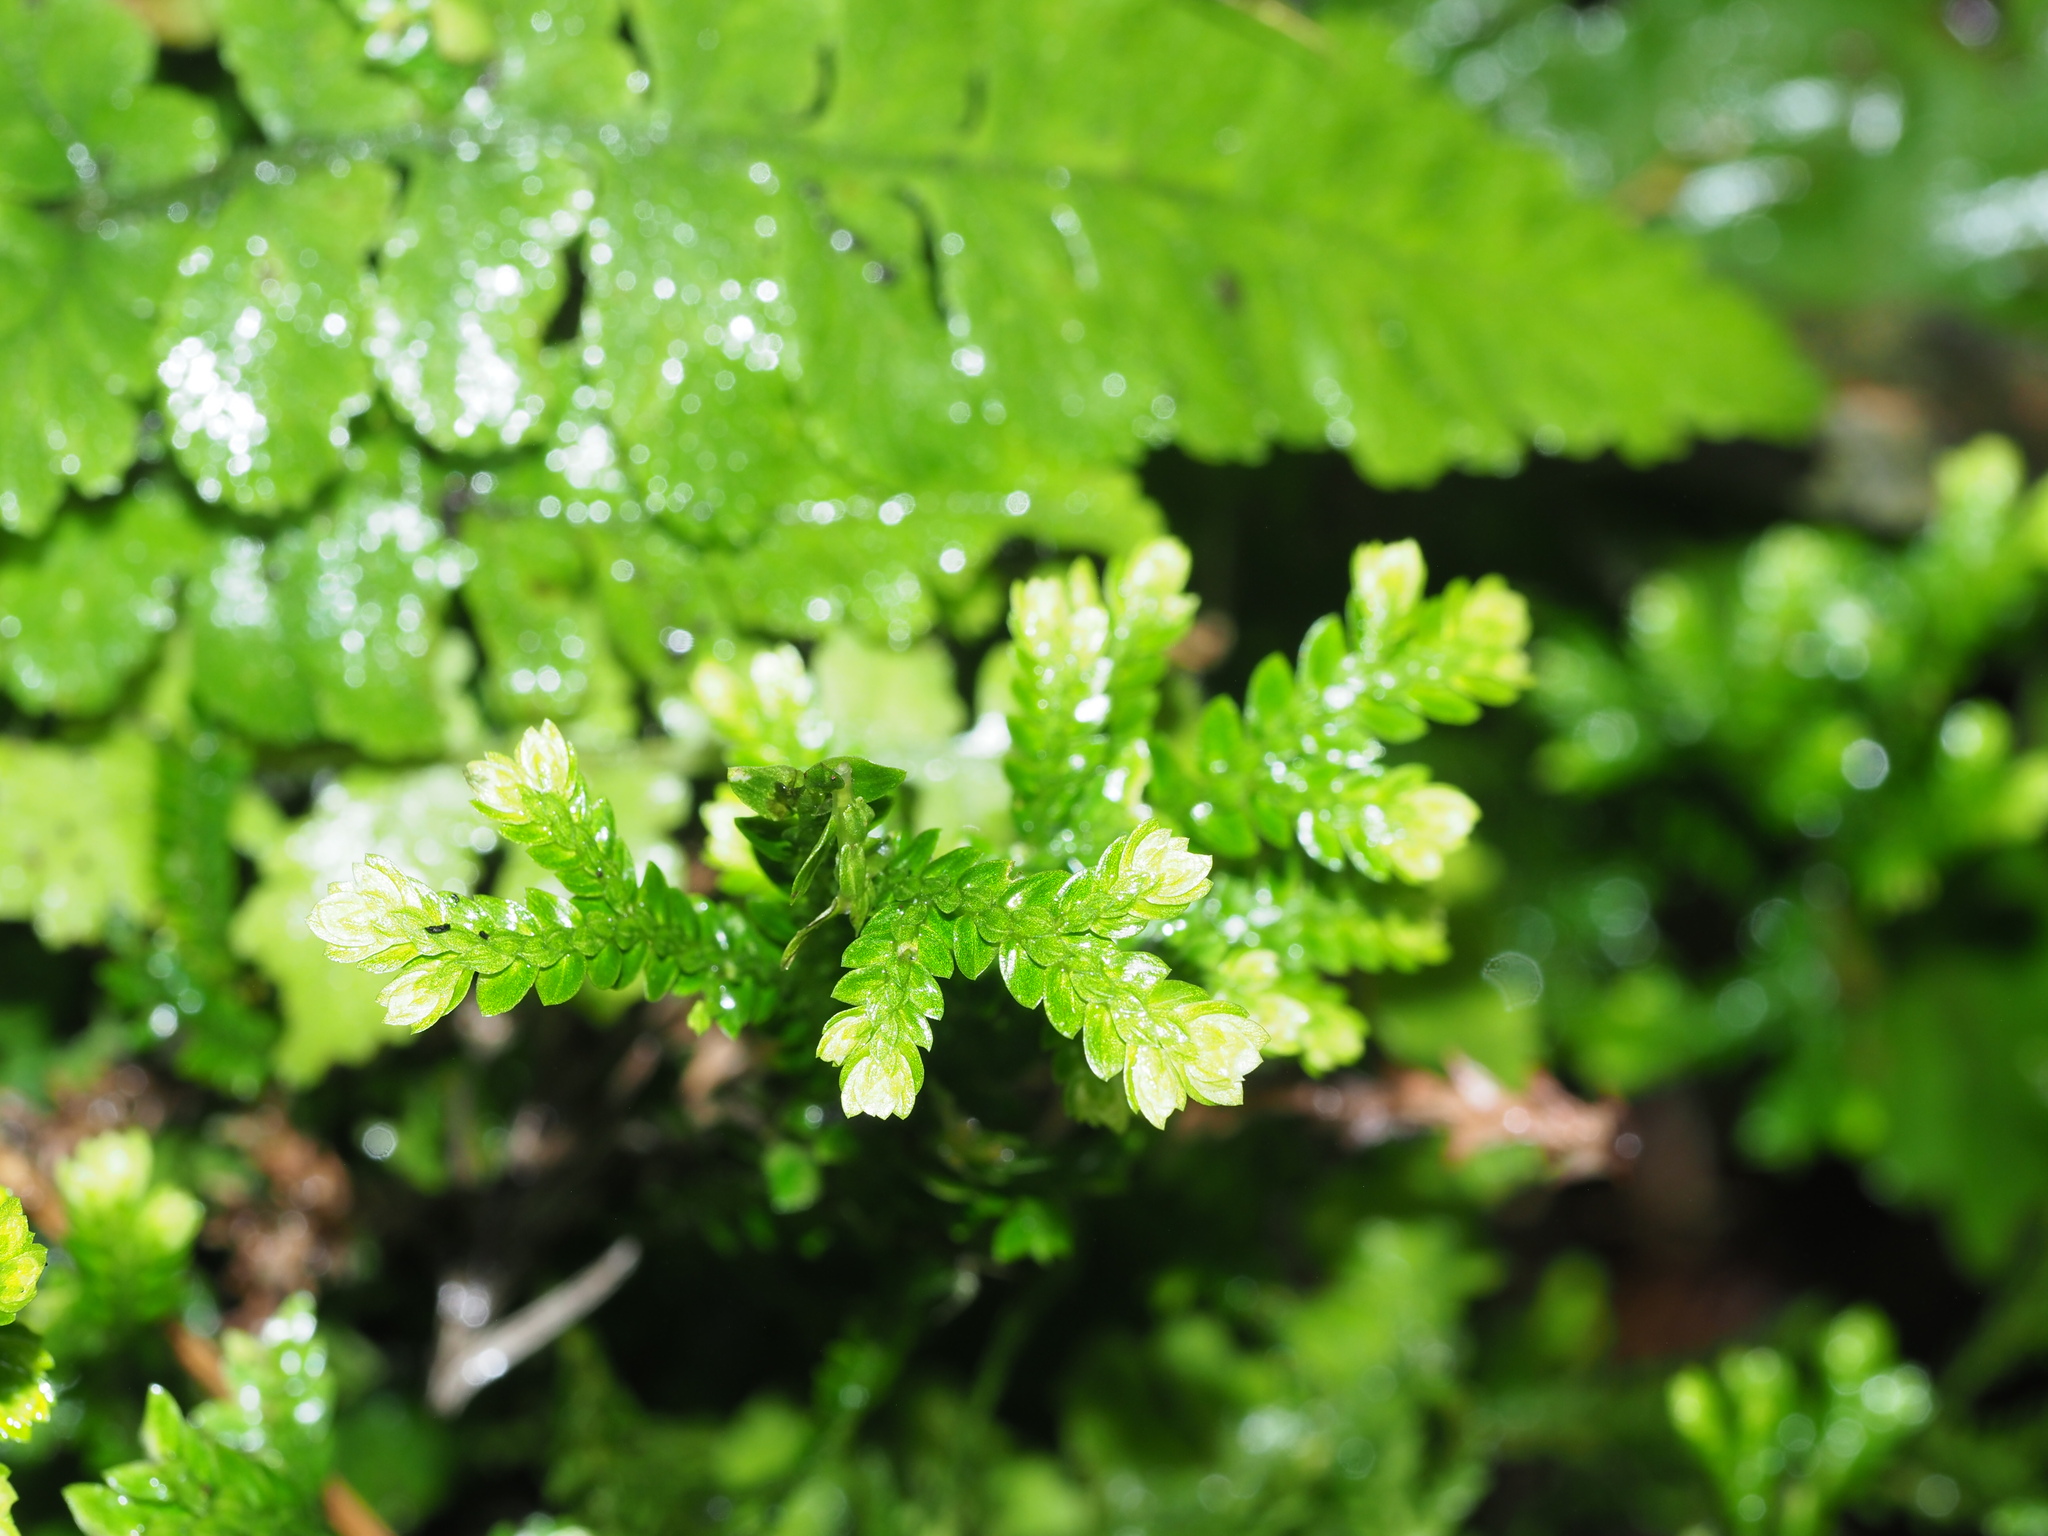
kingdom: Plantae
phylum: Tracheophyta
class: Lycopodiopsida
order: Selaginellales
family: Selaginellaceae
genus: Selaginella
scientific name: Selaginella arbuscula
